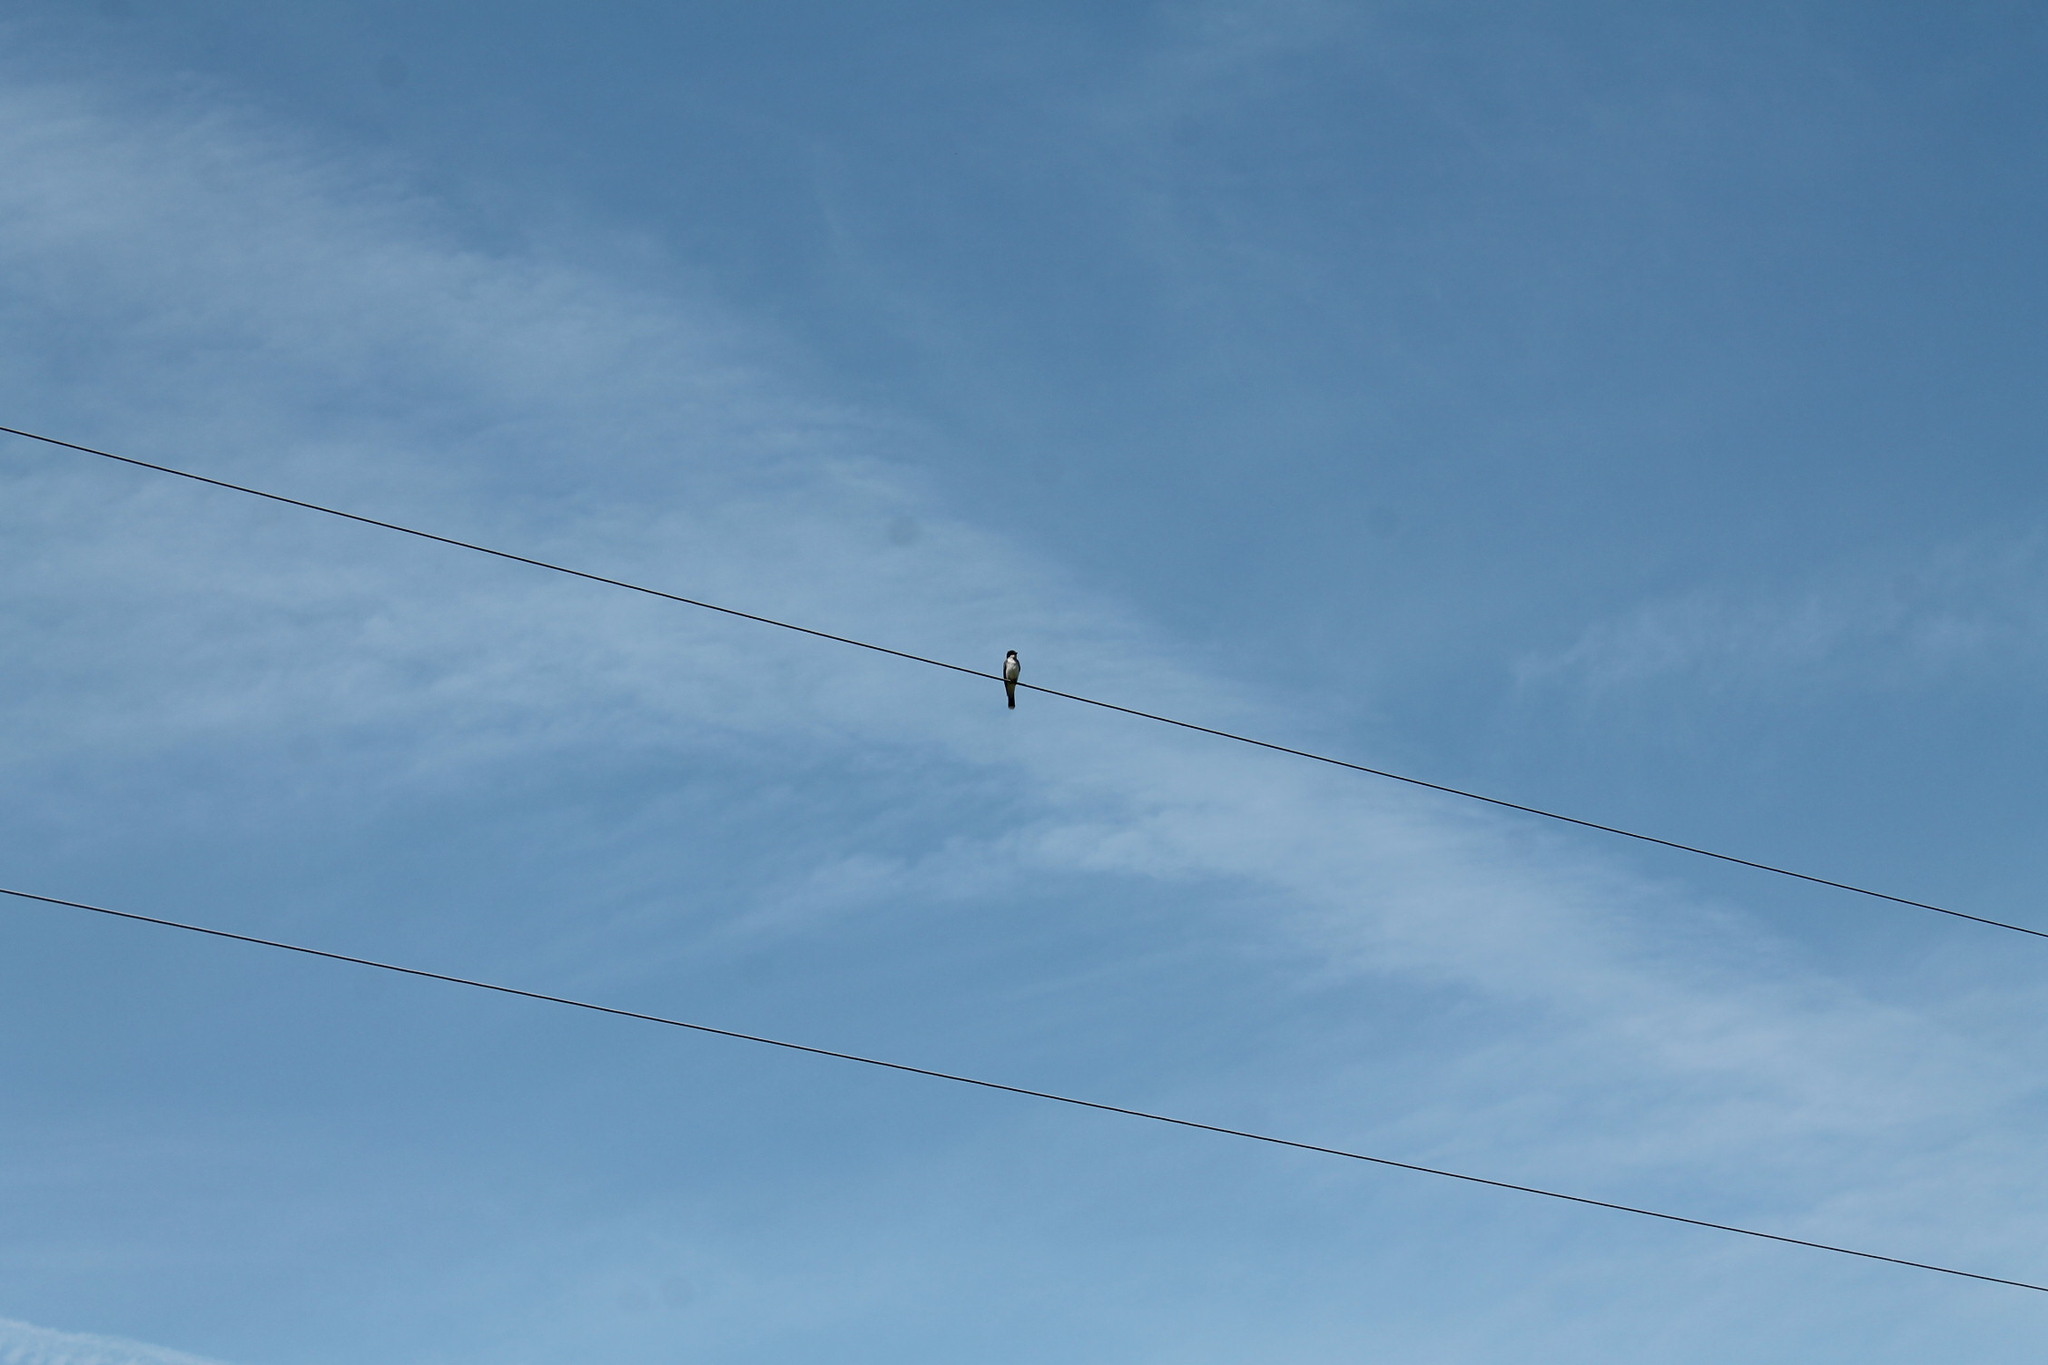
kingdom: Animalia
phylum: Chordata
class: Aves
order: Passeriformes
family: Tyrannidae
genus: Tyrannus
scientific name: Tyrannus tyrannus
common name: Eastern kingbird
